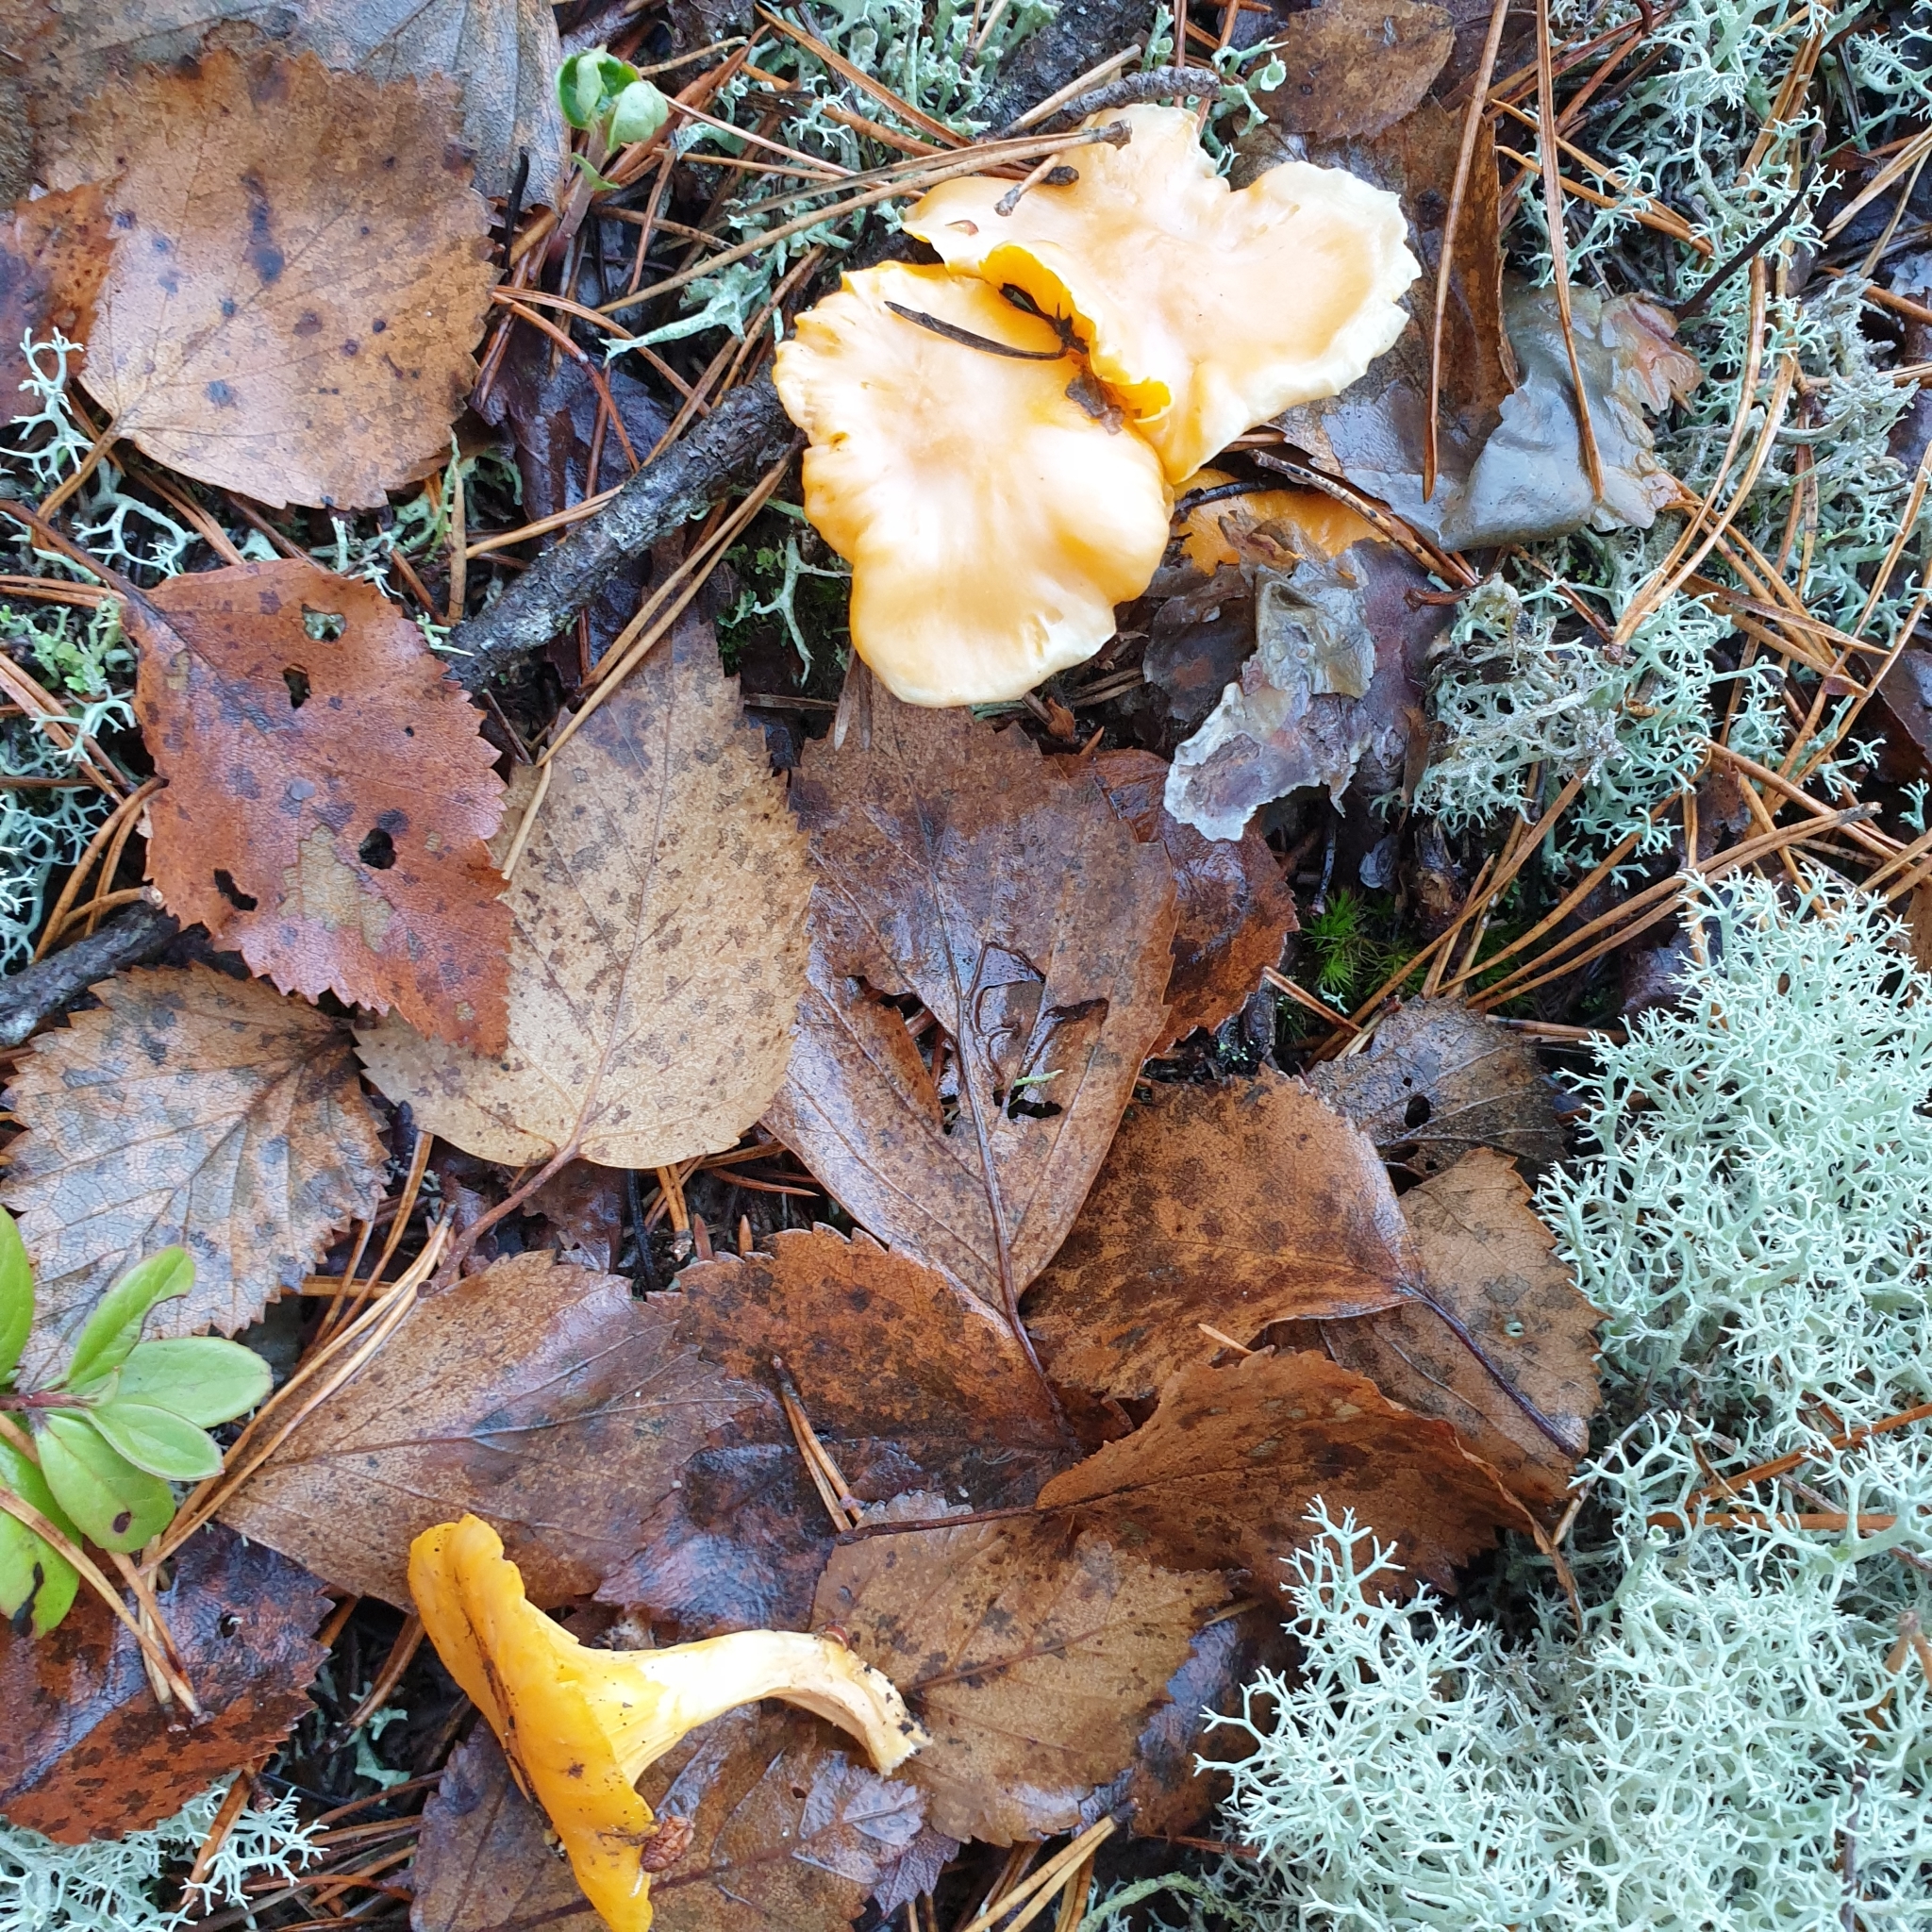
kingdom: Fungi
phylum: Basidiomycota
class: Agaricomycetes
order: Cantharellales
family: Hydnaceae
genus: Cantharellus
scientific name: Cantharellus cibarius
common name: Chanterelle
